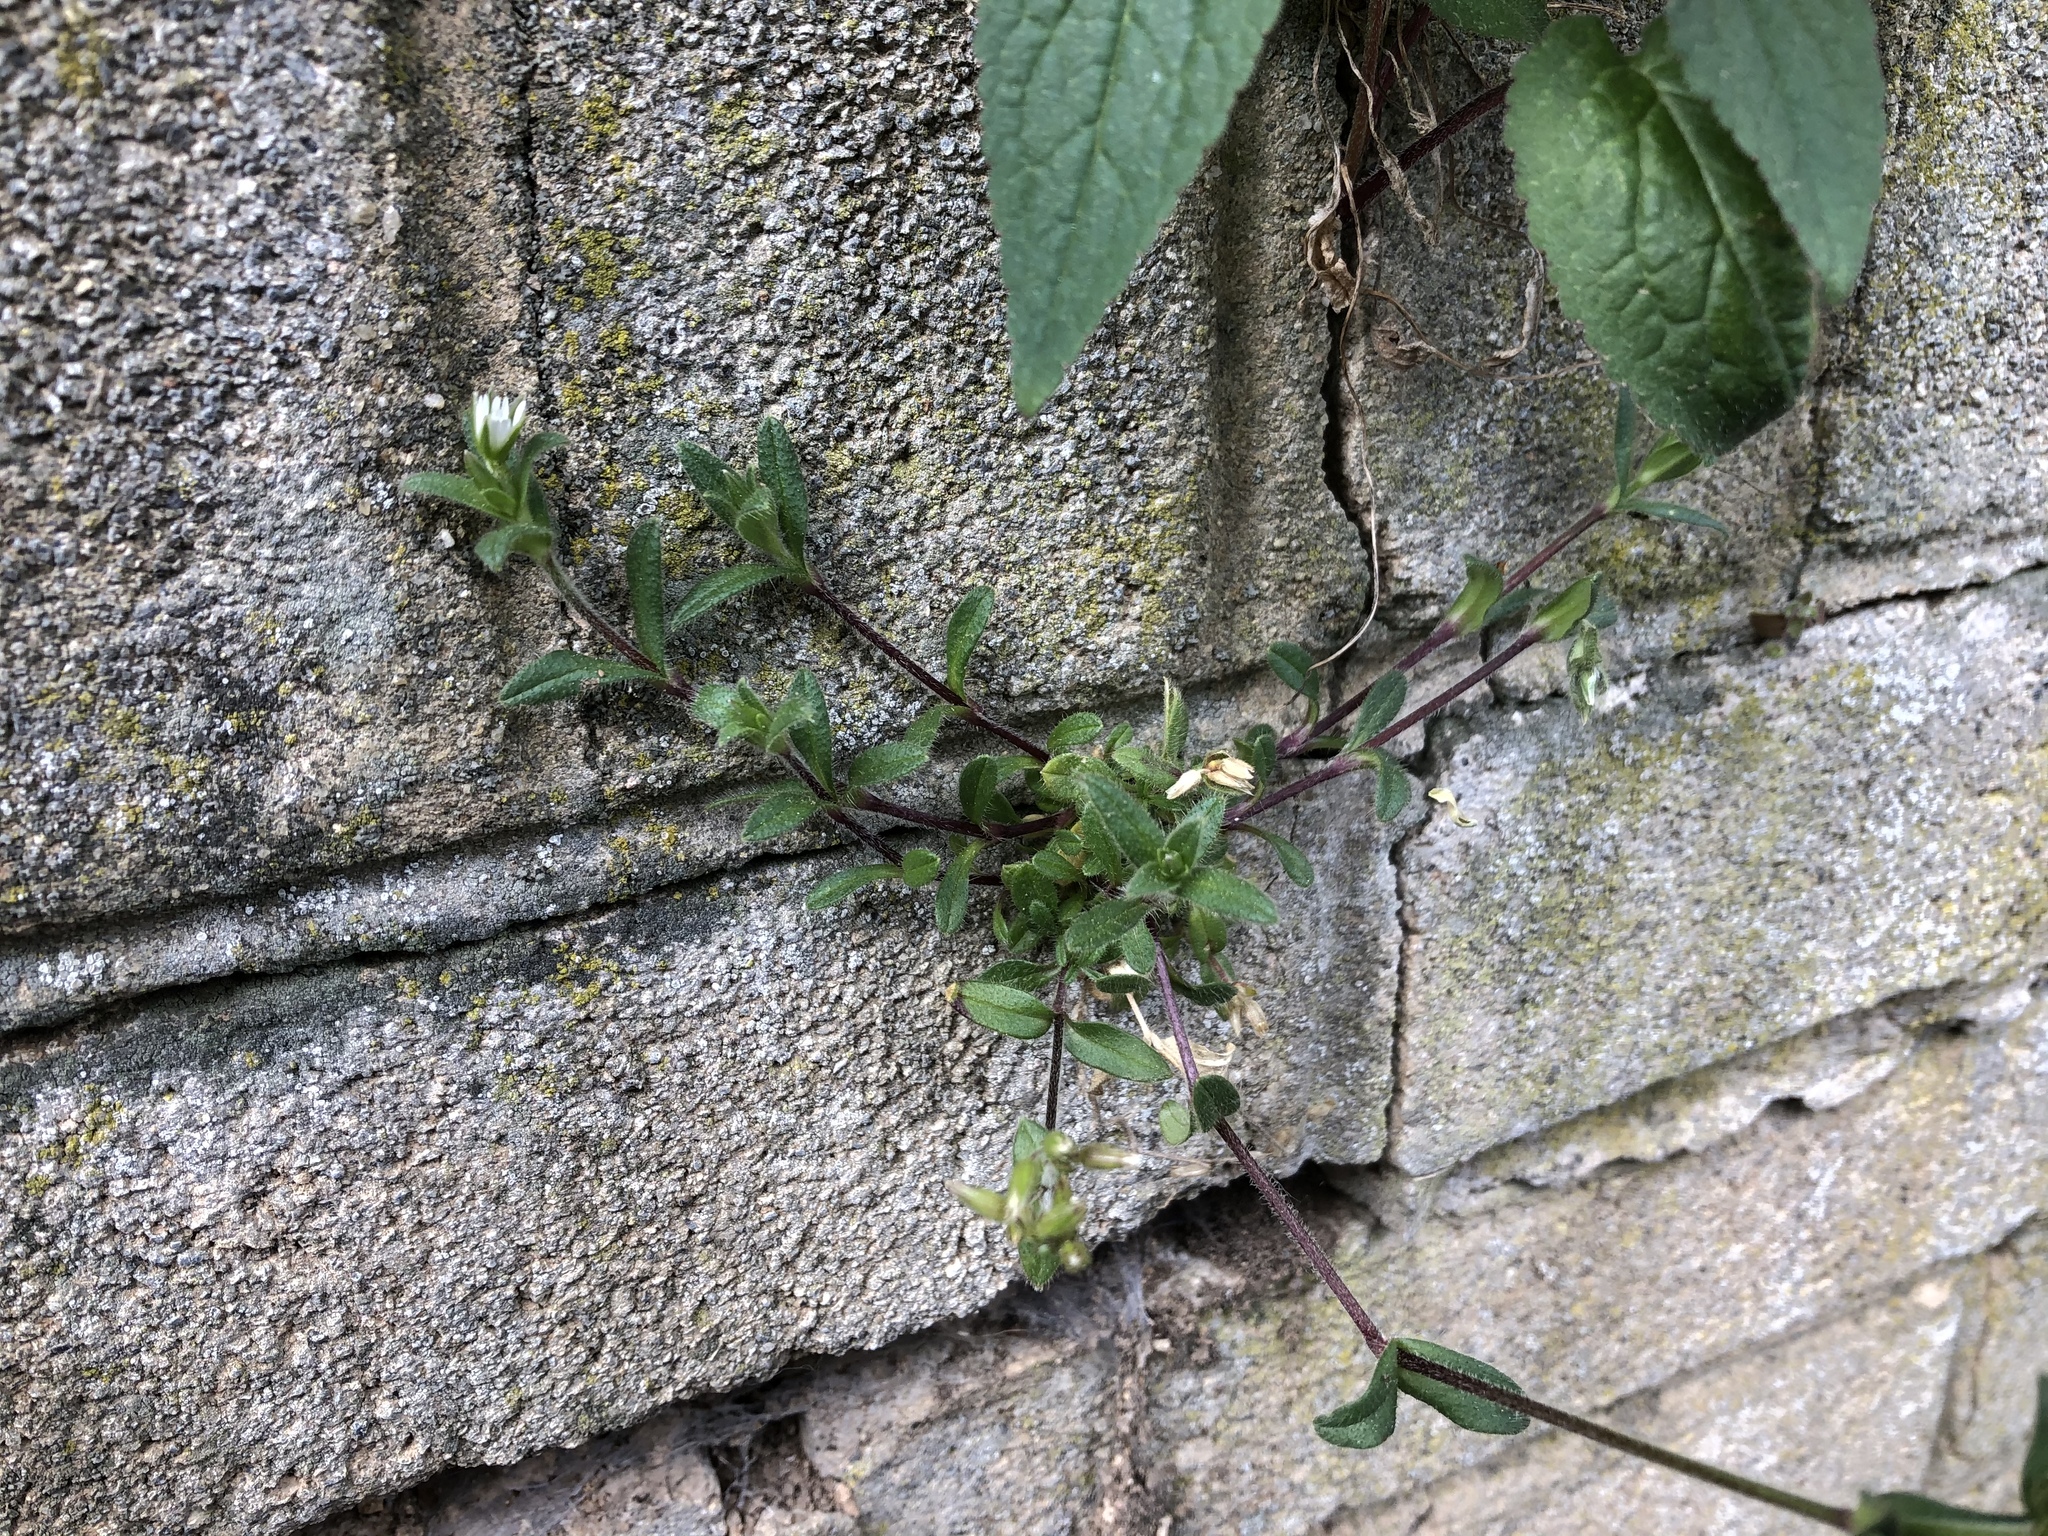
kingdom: Plantae
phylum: Tracheophyta
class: Magnoliopsida
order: Caryophyllales
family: Caryophyllaceae
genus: Cerastium
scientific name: Cerastium holosteoides
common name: Big chickweed
